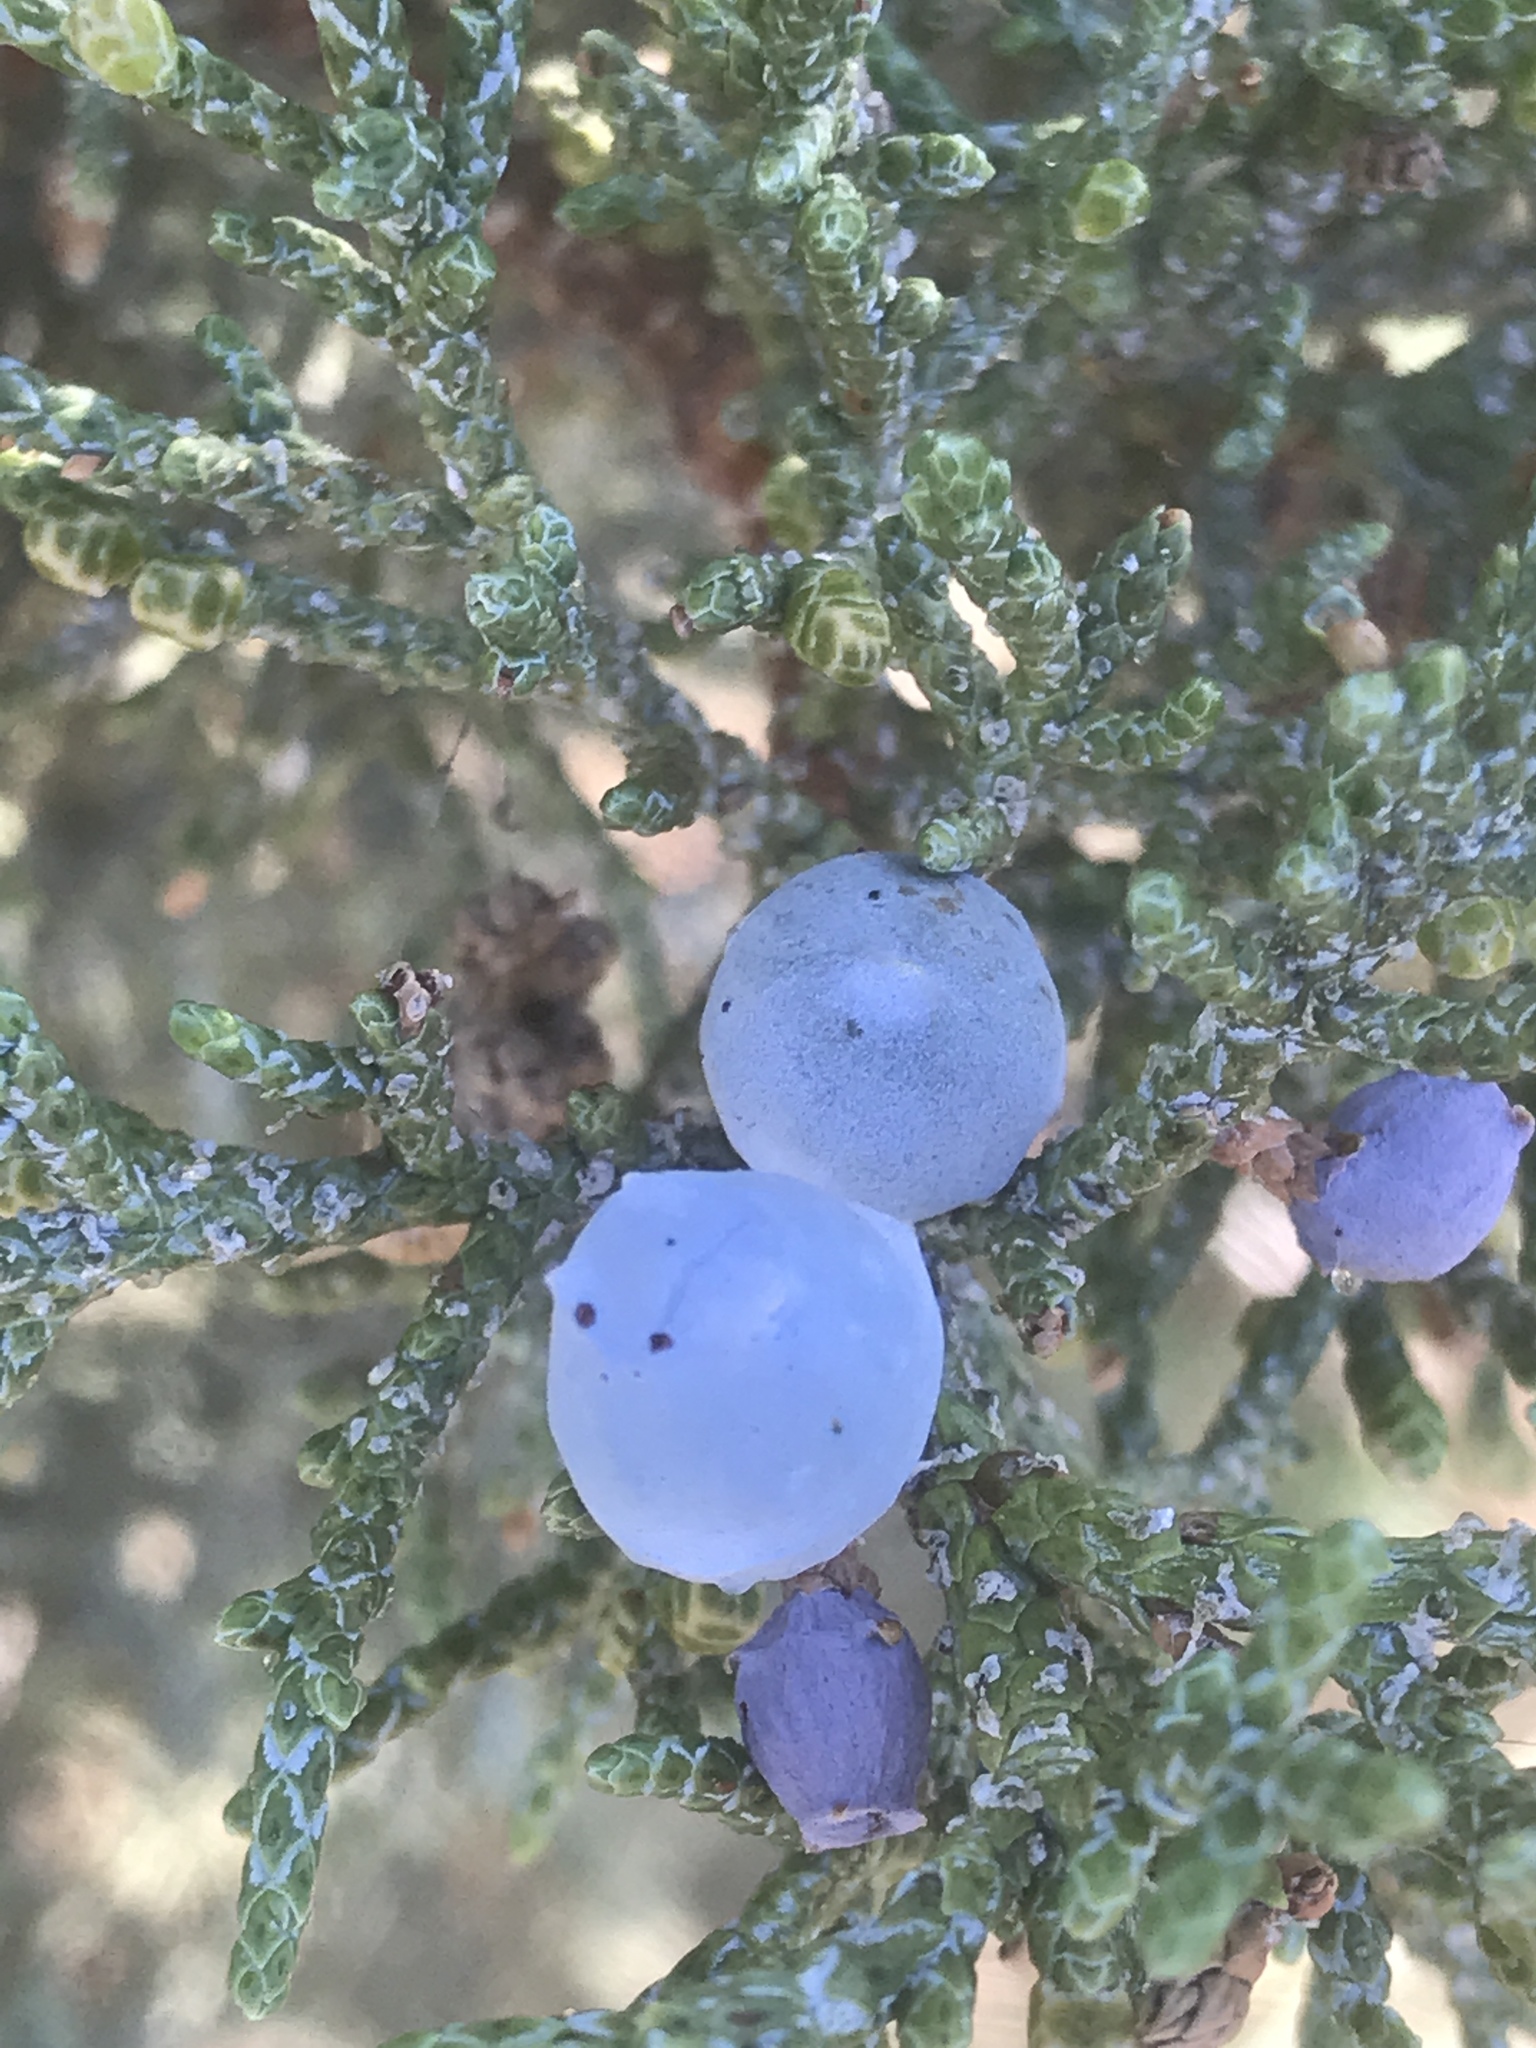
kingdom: Plantae
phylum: Tracheophyta
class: Pinopsida
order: Pinales
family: Cupressaceae
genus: Juniperus
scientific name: Juniperus occidentalis
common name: Western juniper
